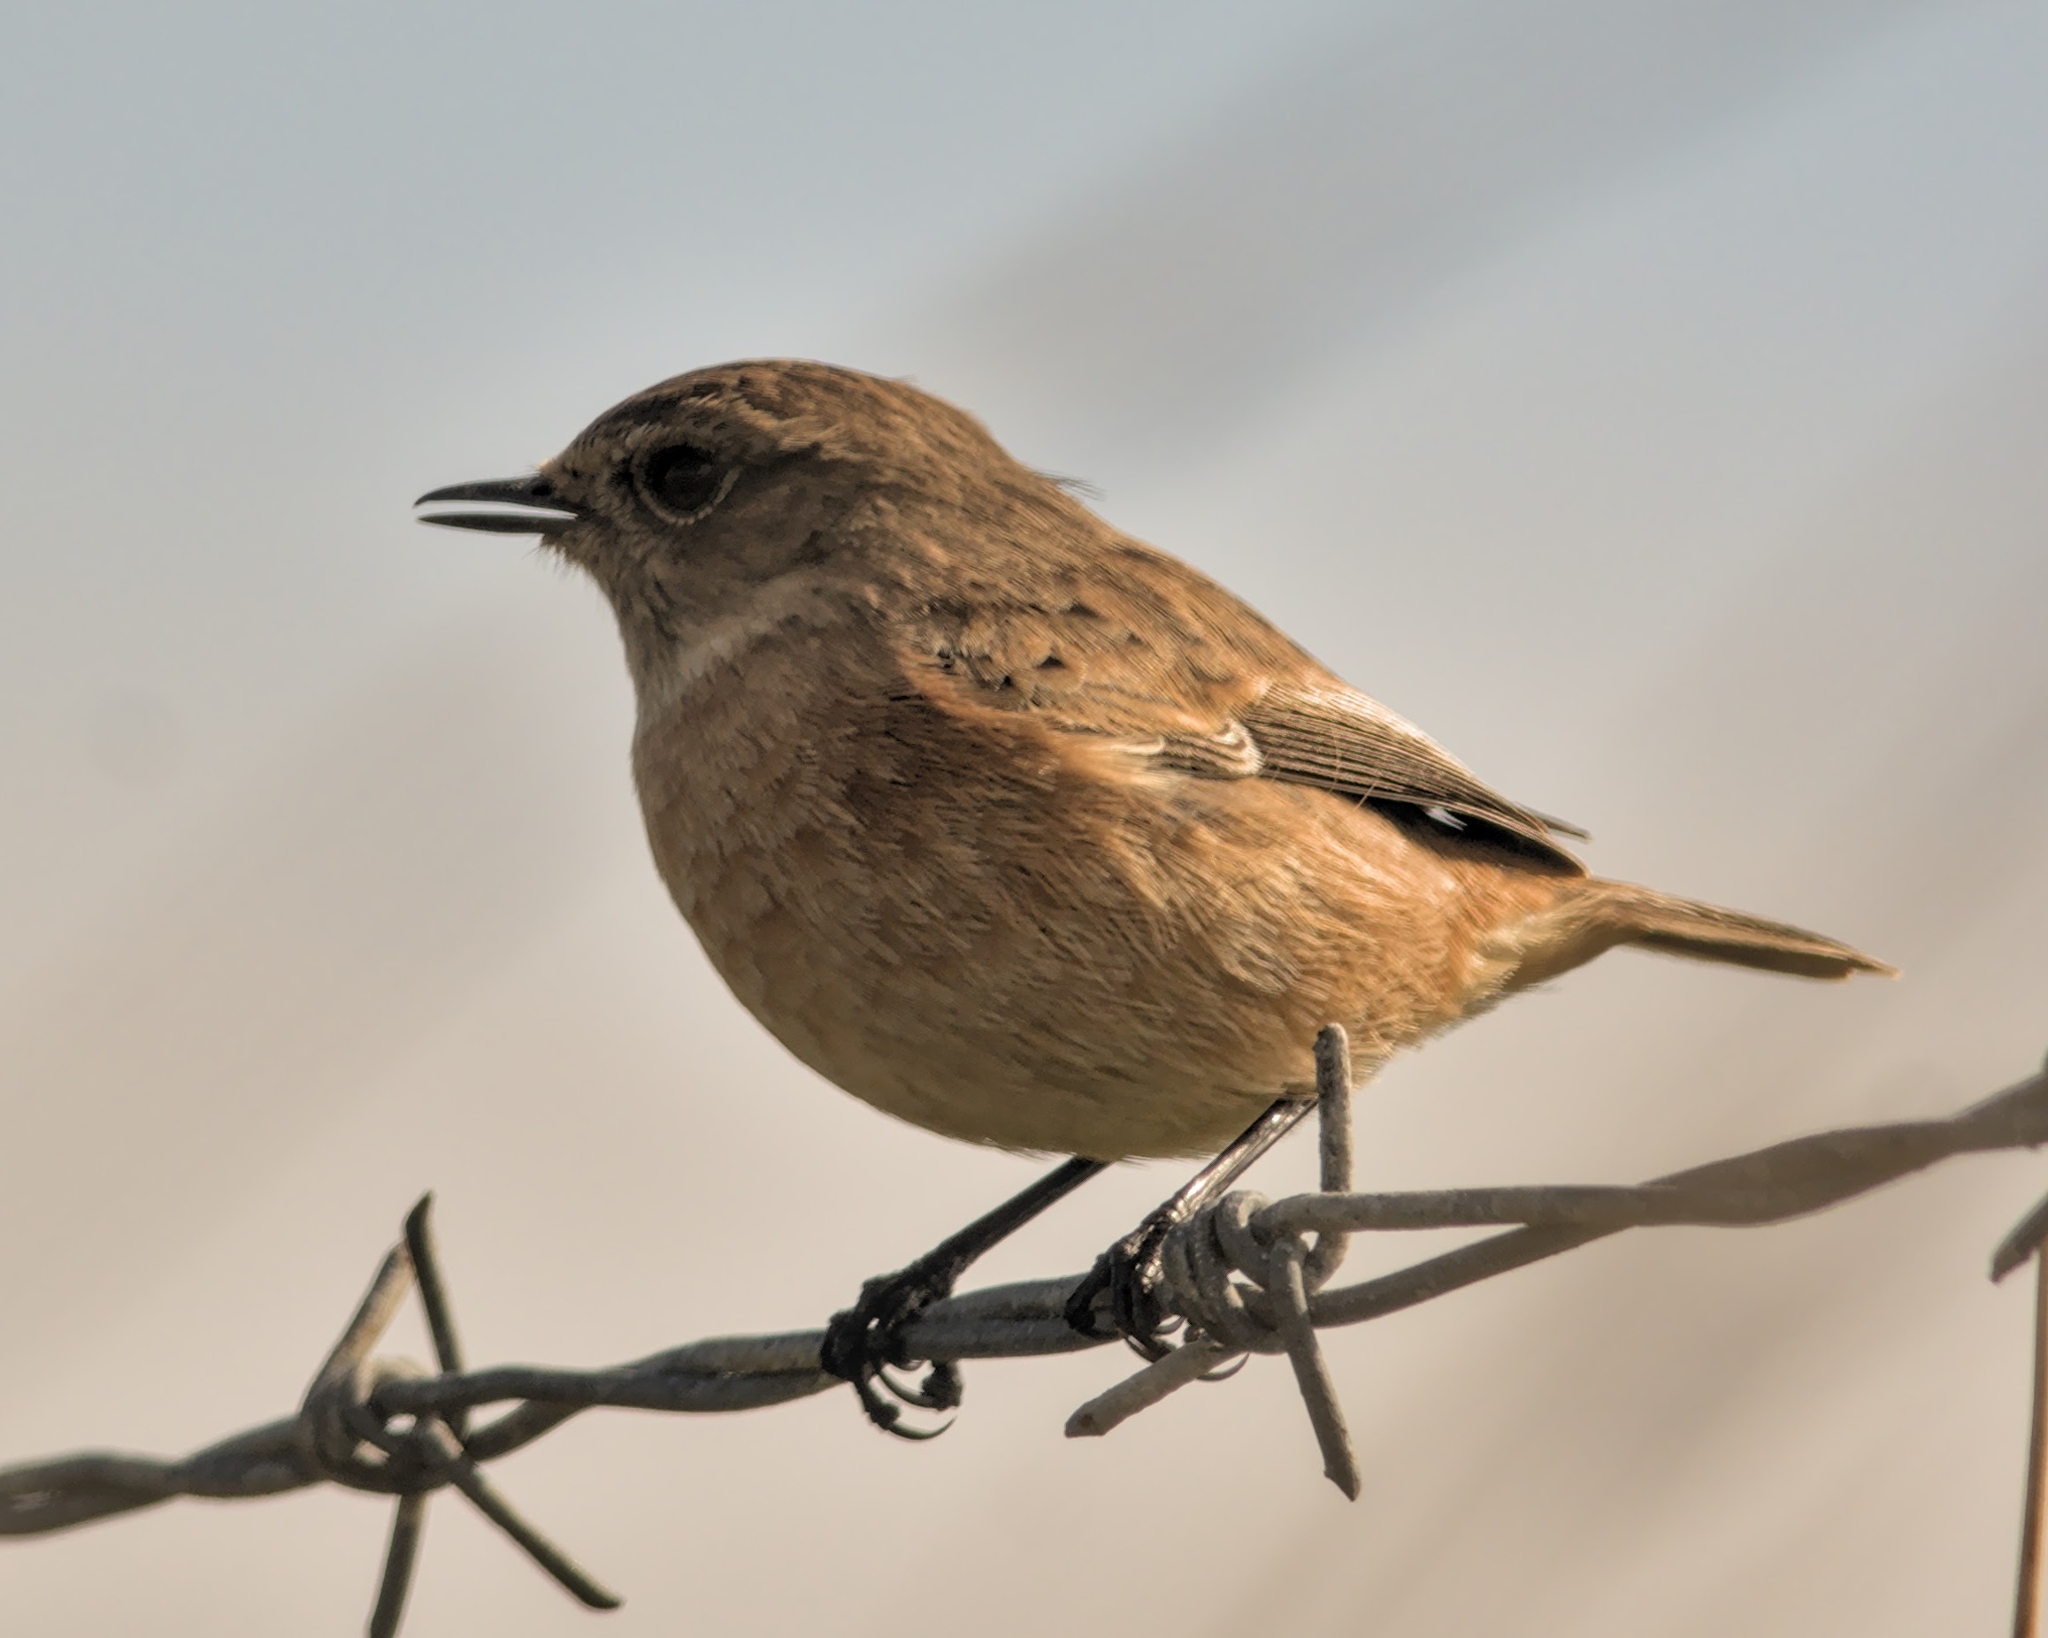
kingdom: Animalia
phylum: Chordata
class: Aves
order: Passeriformes
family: Muscicapidae
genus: Saxicola
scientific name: Saxicola rubicola
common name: European stonechat
